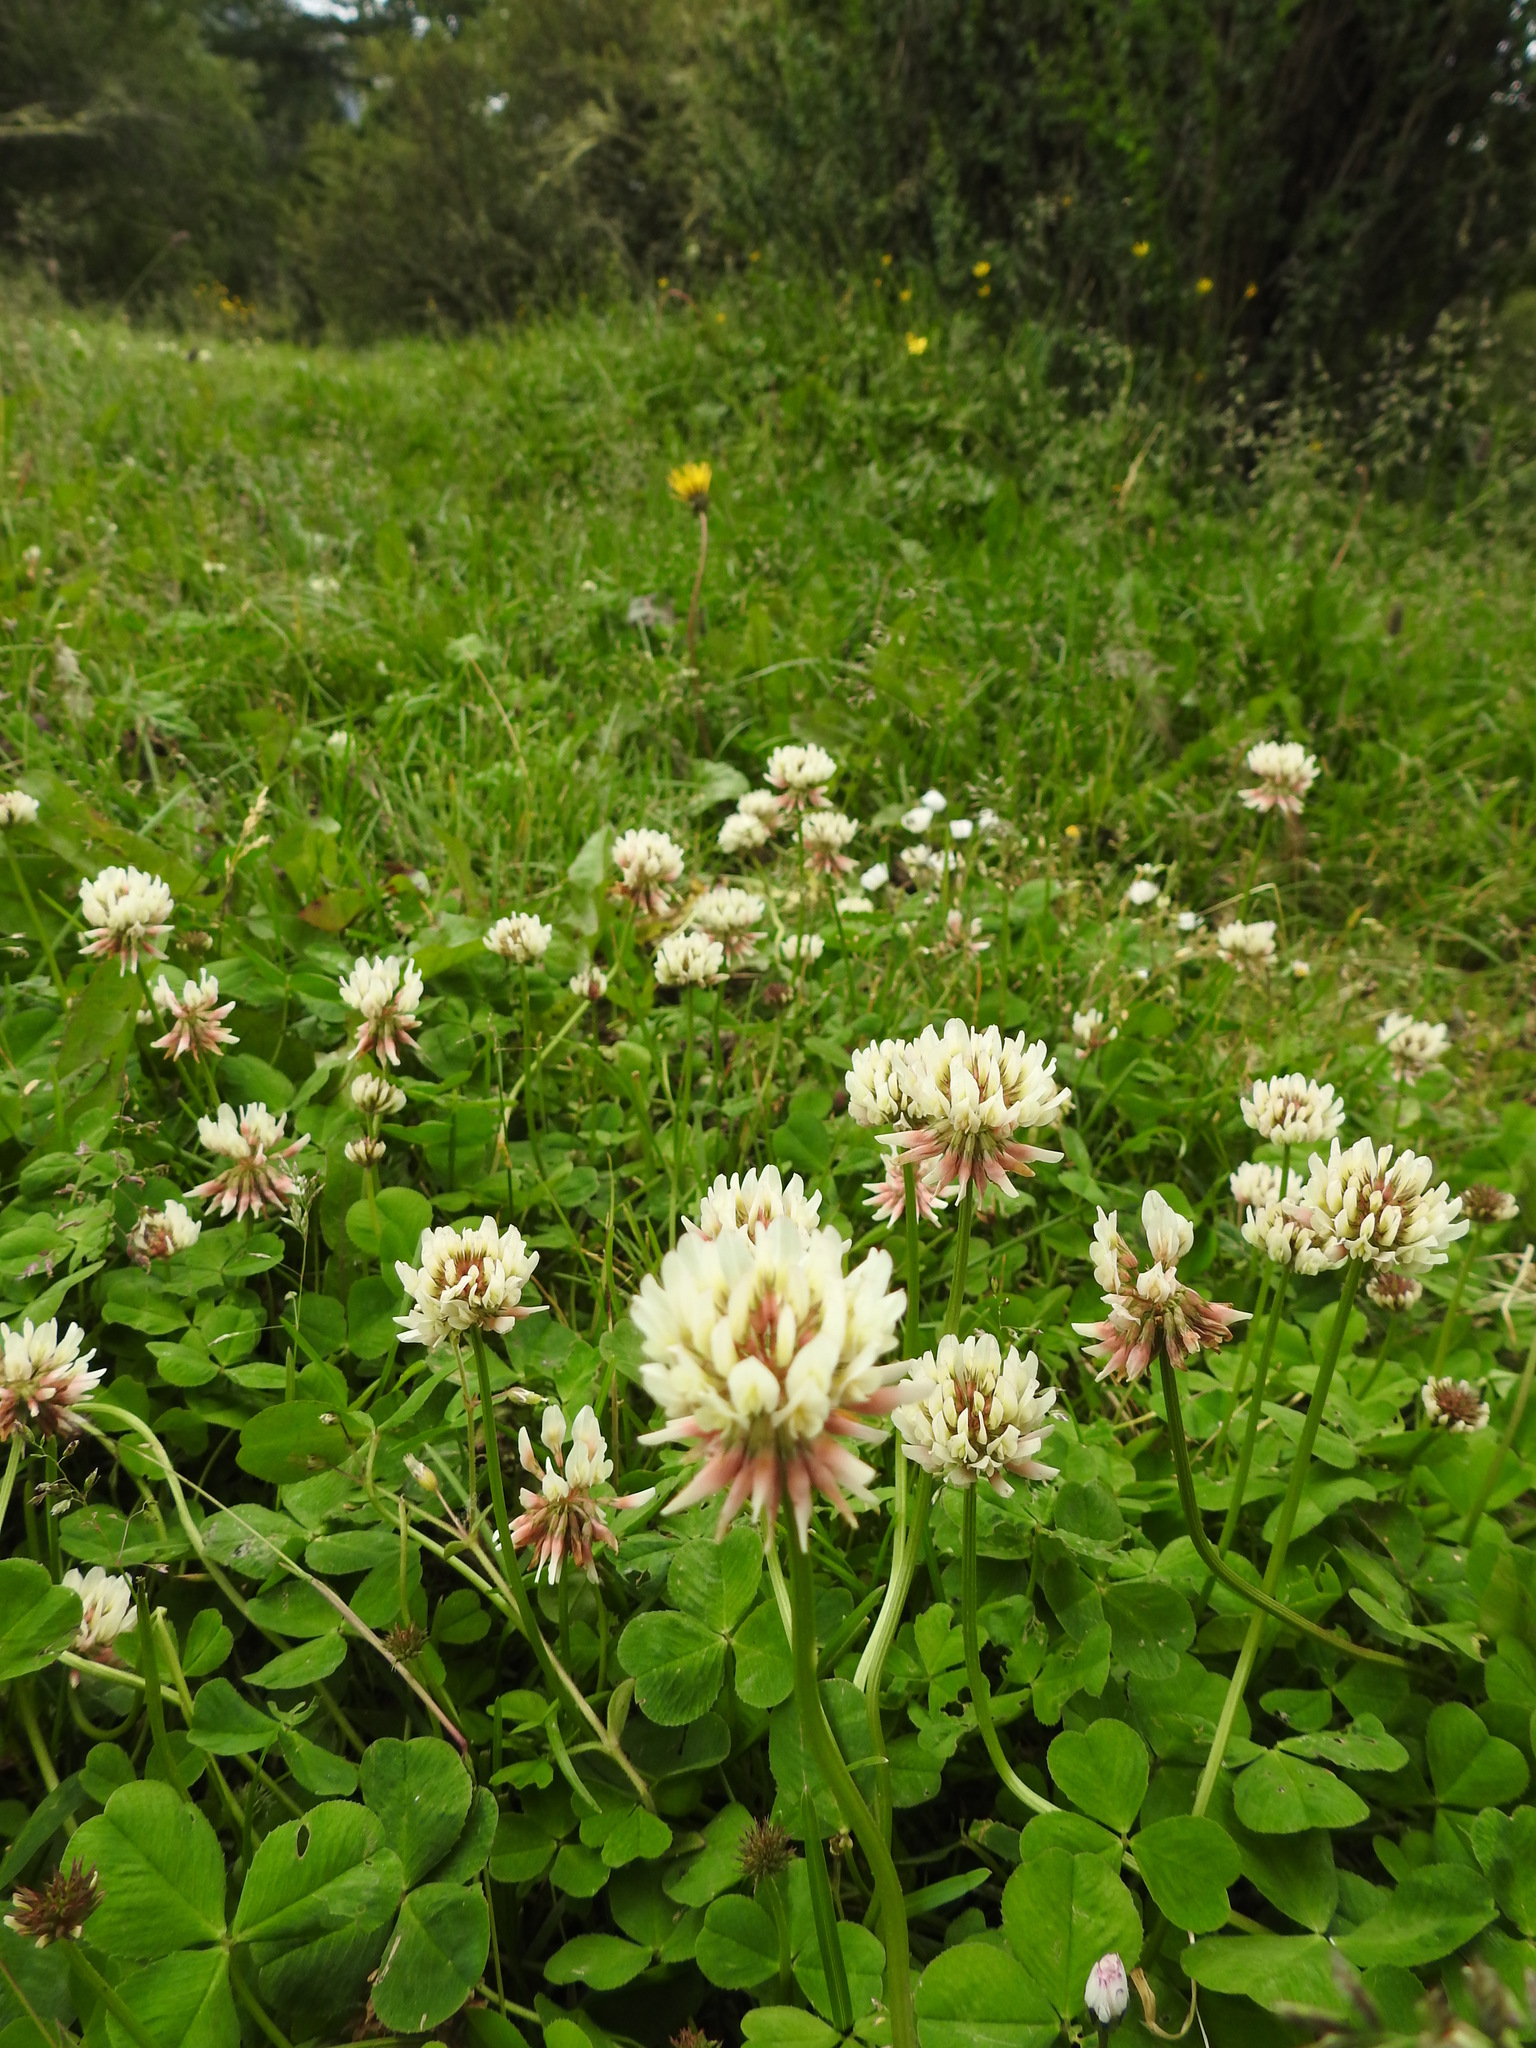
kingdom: Plantae
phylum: Tracheophyta
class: Magnoliopsida
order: Fabales
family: Fabaceae
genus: Trifolium
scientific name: Trifolium repens
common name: White clover
